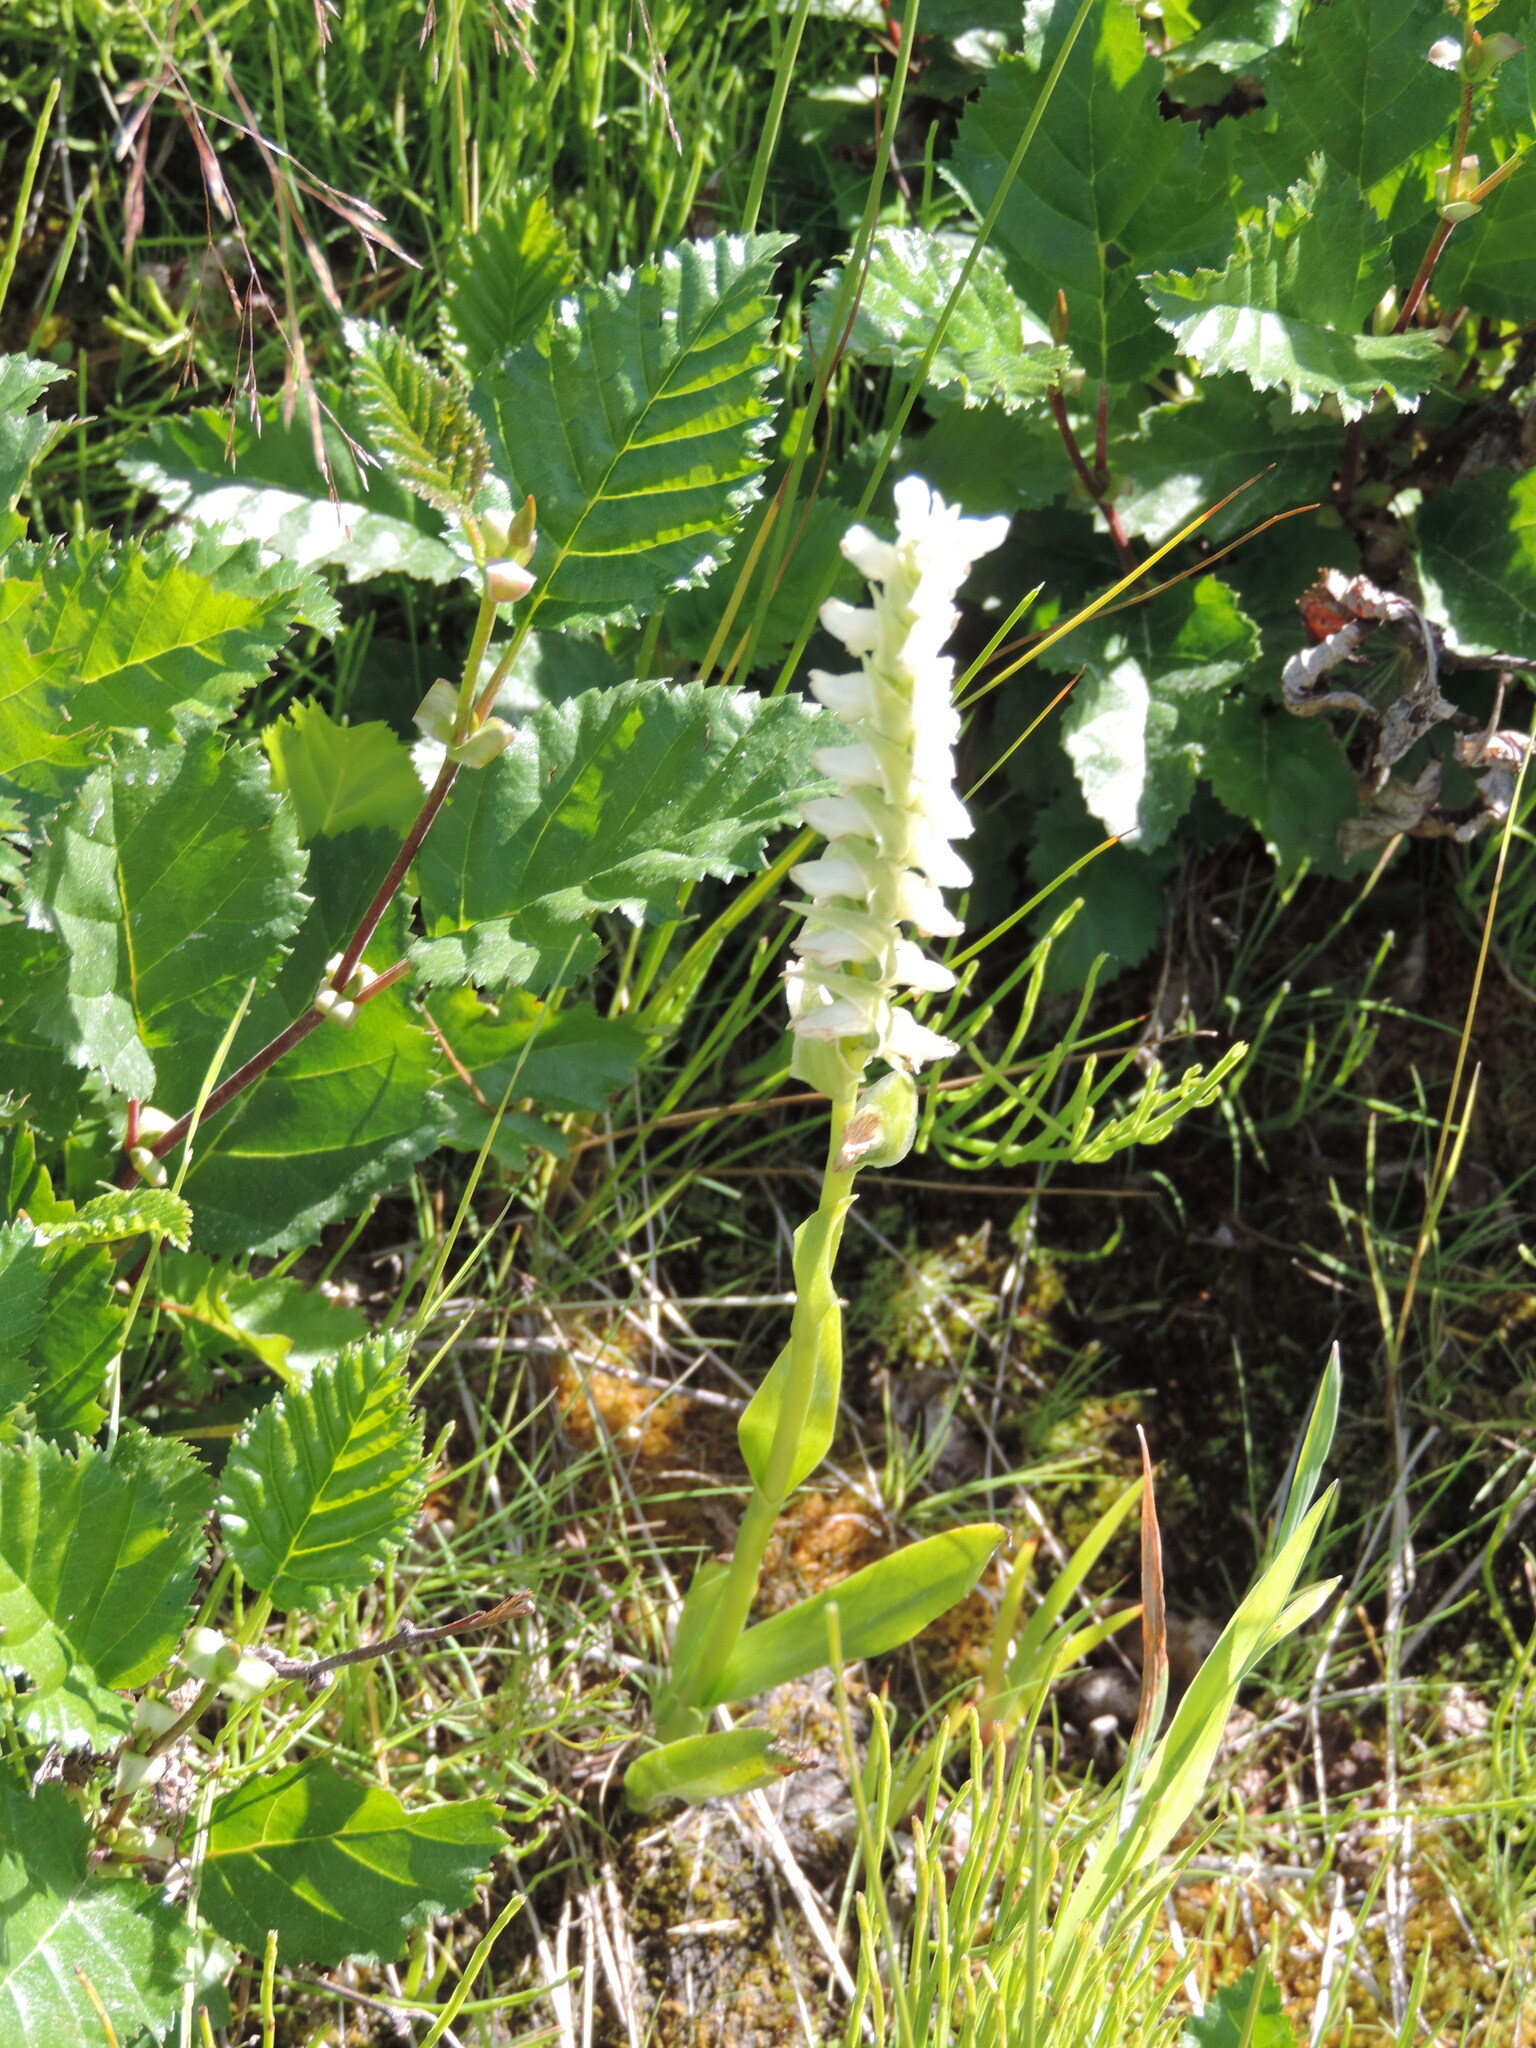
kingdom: Plantae
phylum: Tracheophyta
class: Liliopsida
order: Asparagales
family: Orchidaceae
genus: Spiranthes
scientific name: Spiranthes romanzoffiana
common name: Irish lady's-tresses
